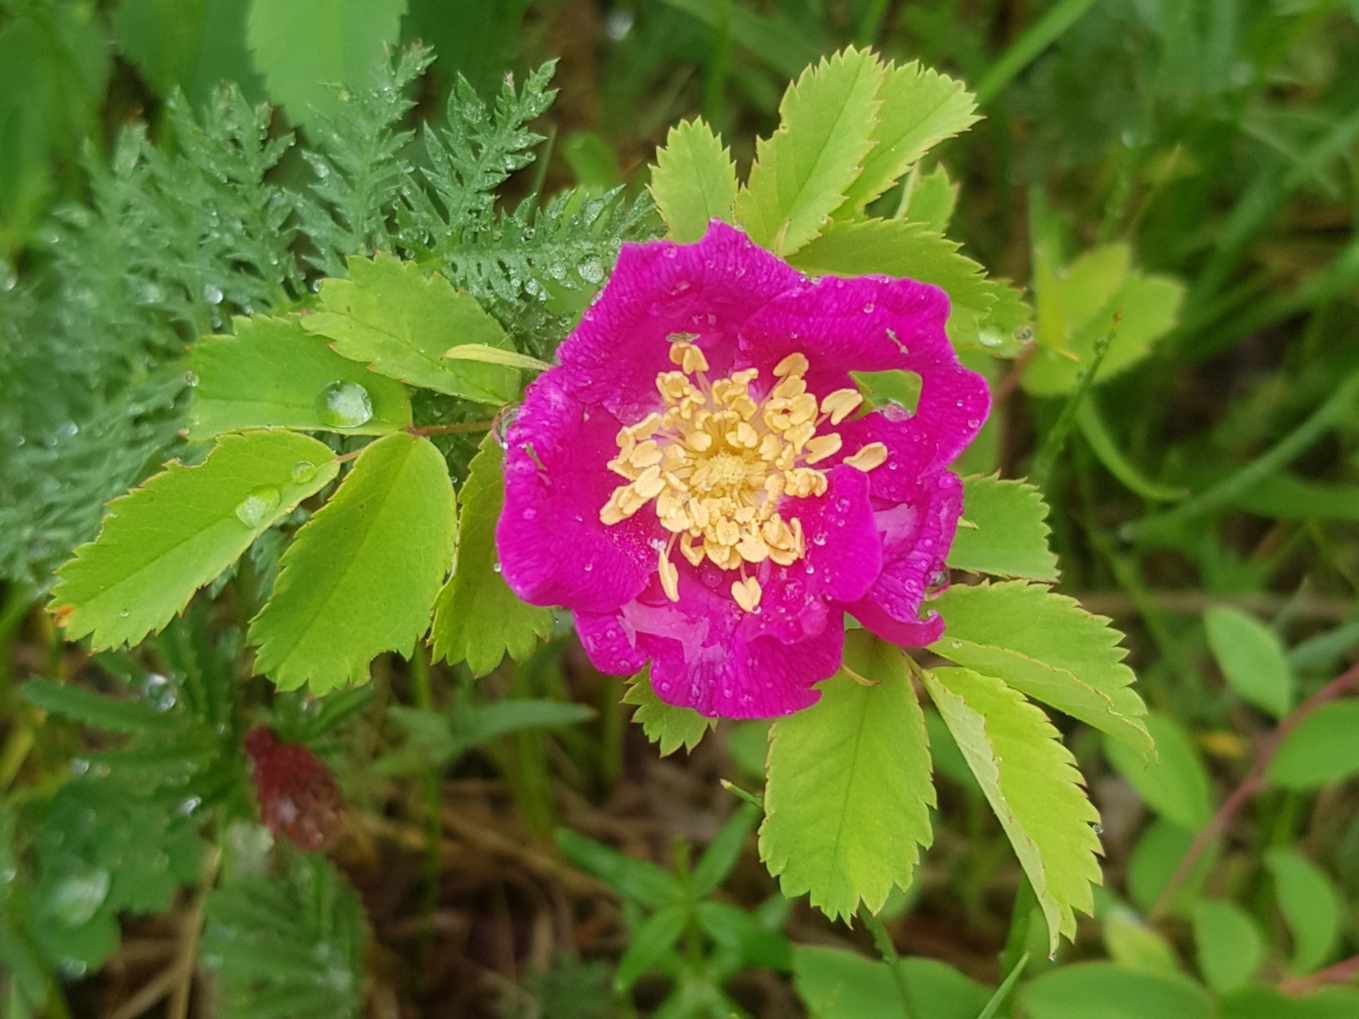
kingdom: Plantae
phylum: Tracheophyta
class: Magnoliopsida
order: Rosales
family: Rosaceae
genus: Rosa
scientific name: Rosa acicularis
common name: Prickly rose
